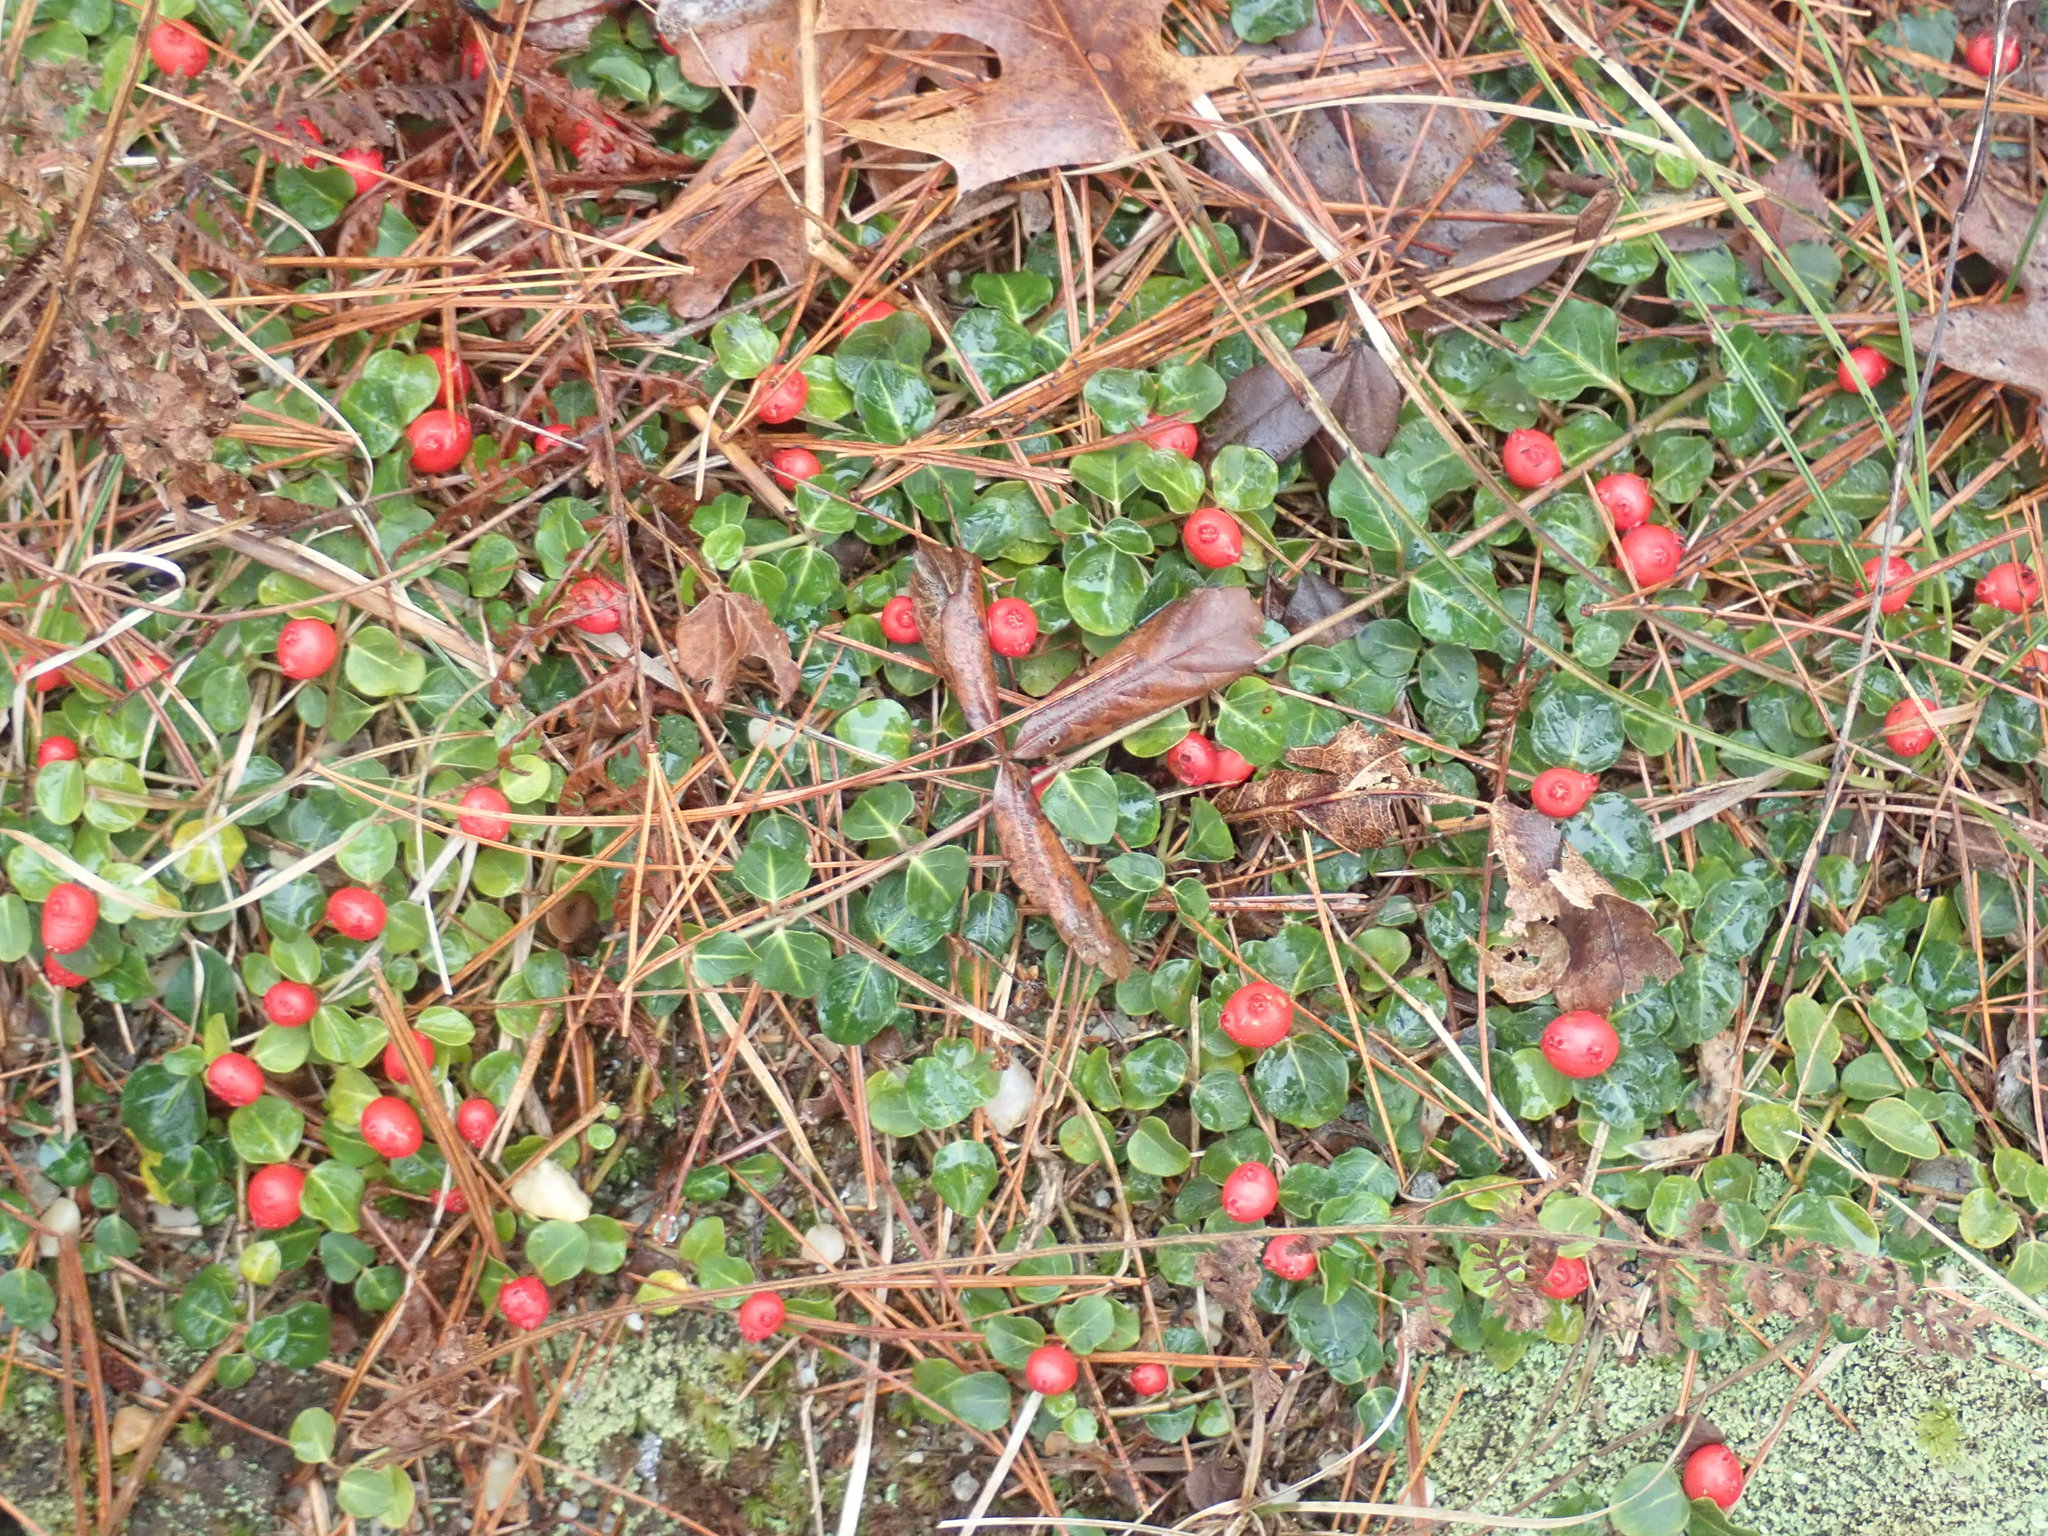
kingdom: Plantae
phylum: Tracheophyta
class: Magnoliopsida
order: Gentianales
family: Rubiaceae
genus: Mitchella
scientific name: Mitchella repens
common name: Partridge-berry
